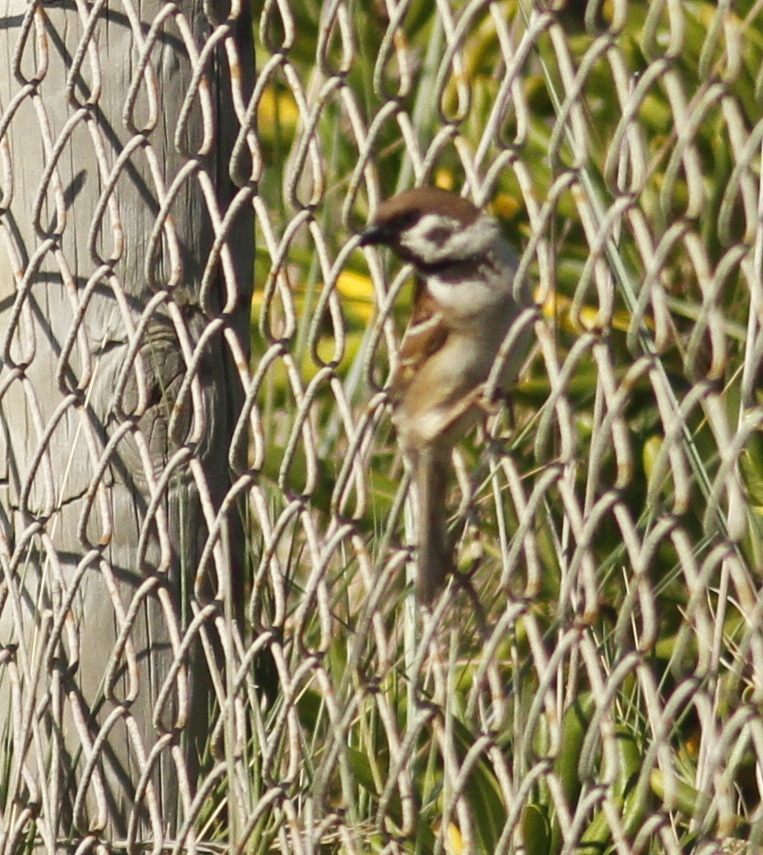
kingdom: Animalia
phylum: Chordata
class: Aves
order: Passeriformes
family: Passeridae
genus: Passer
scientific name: Passer montanus
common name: Eurasian tree sparrow
